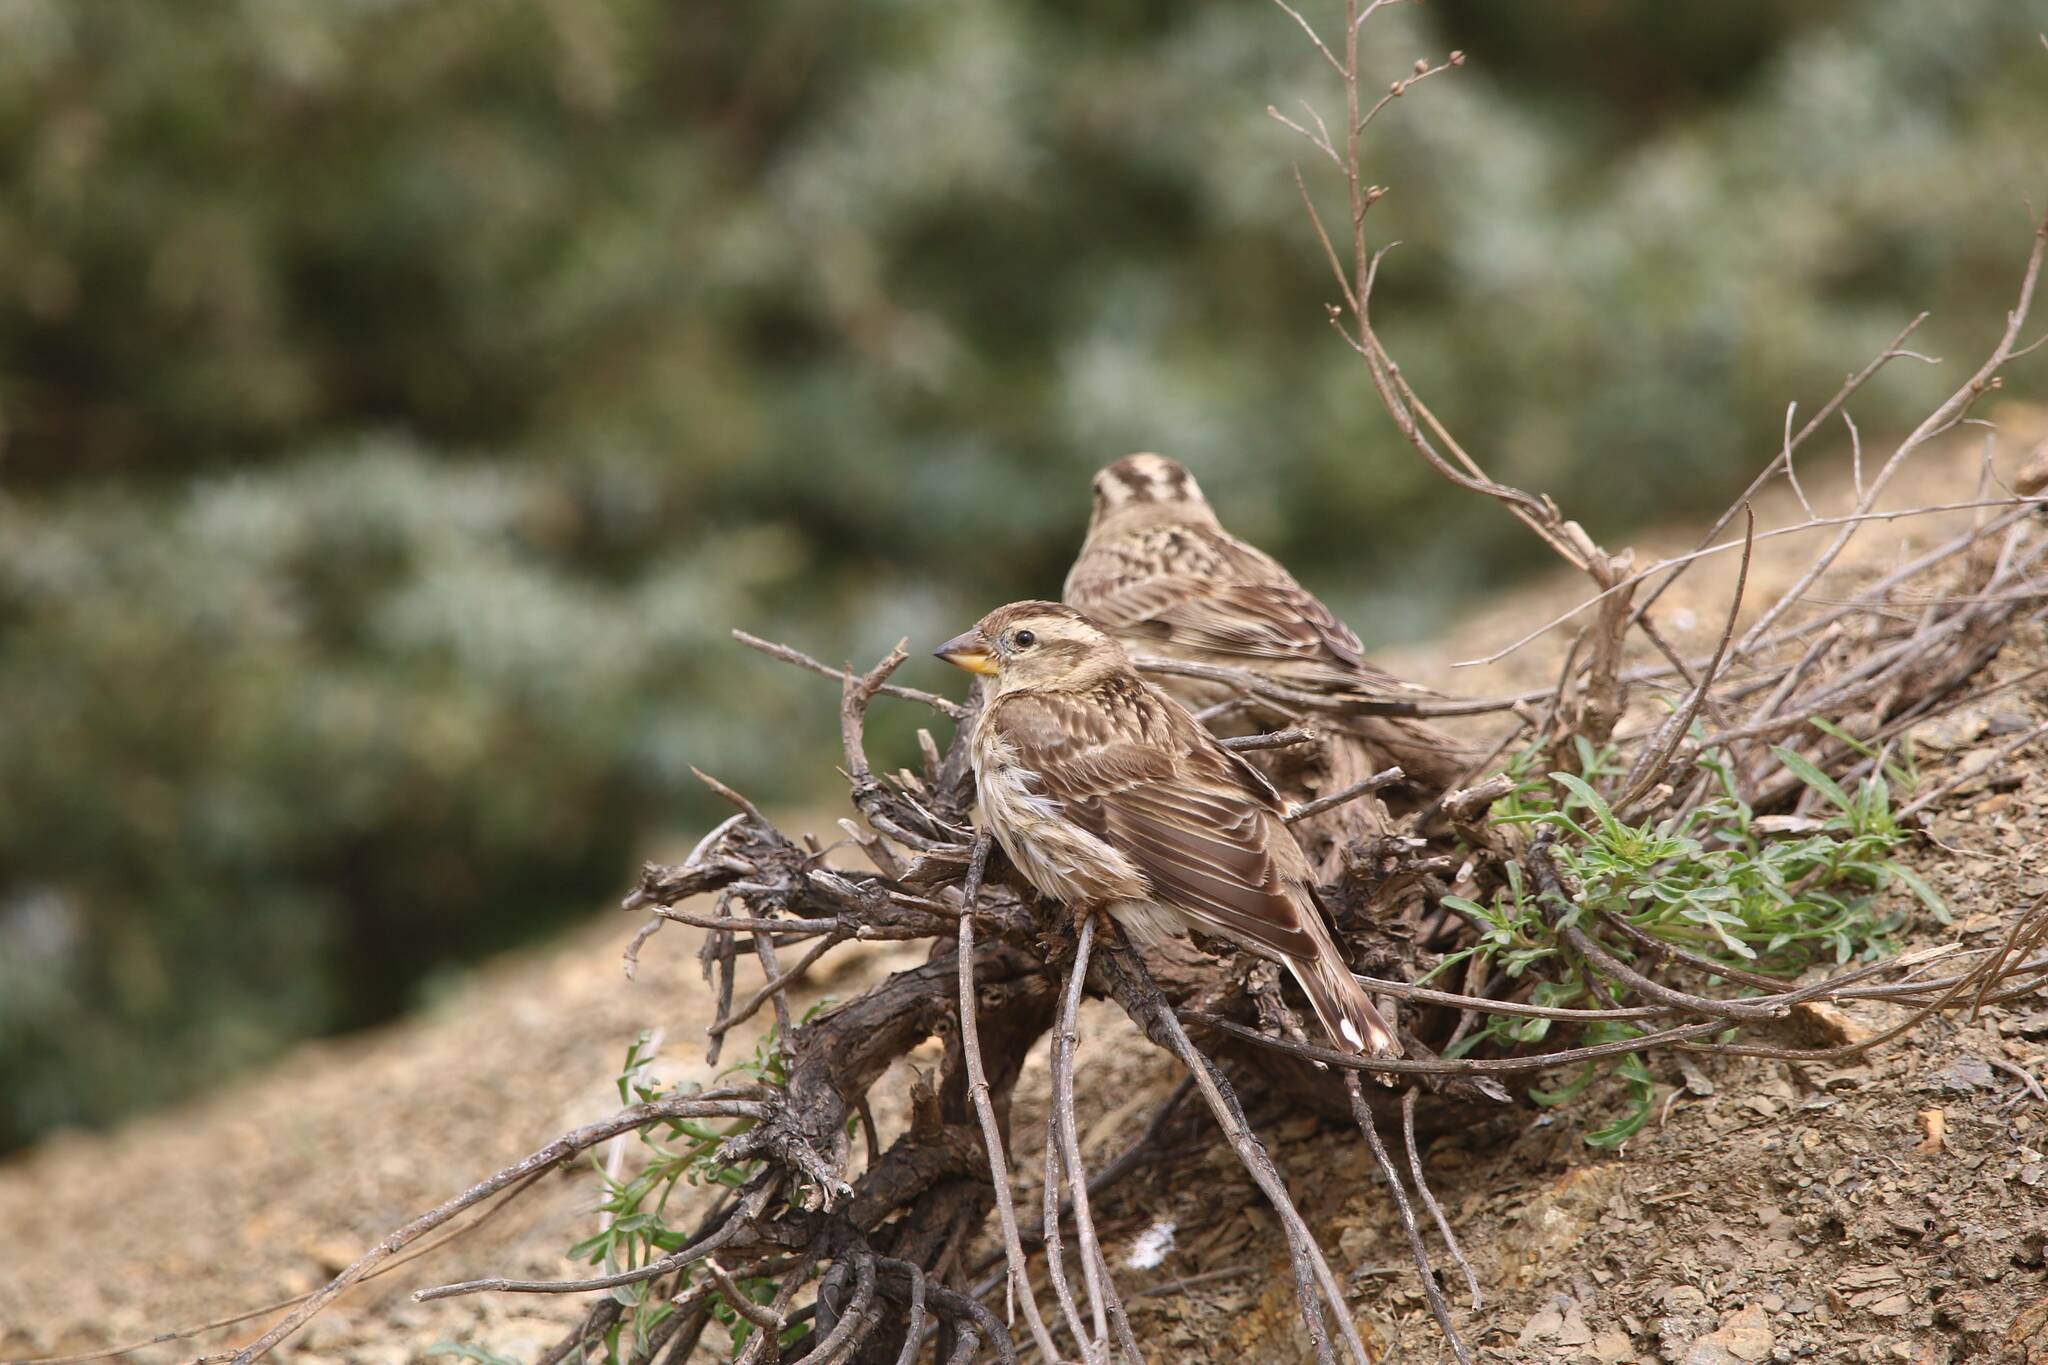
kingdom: Animalia
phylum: Chordata
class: Aves
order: Passeriformes
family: Passeridae
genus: Petronia
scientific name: Petronia petronia
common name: Rock sparrow
